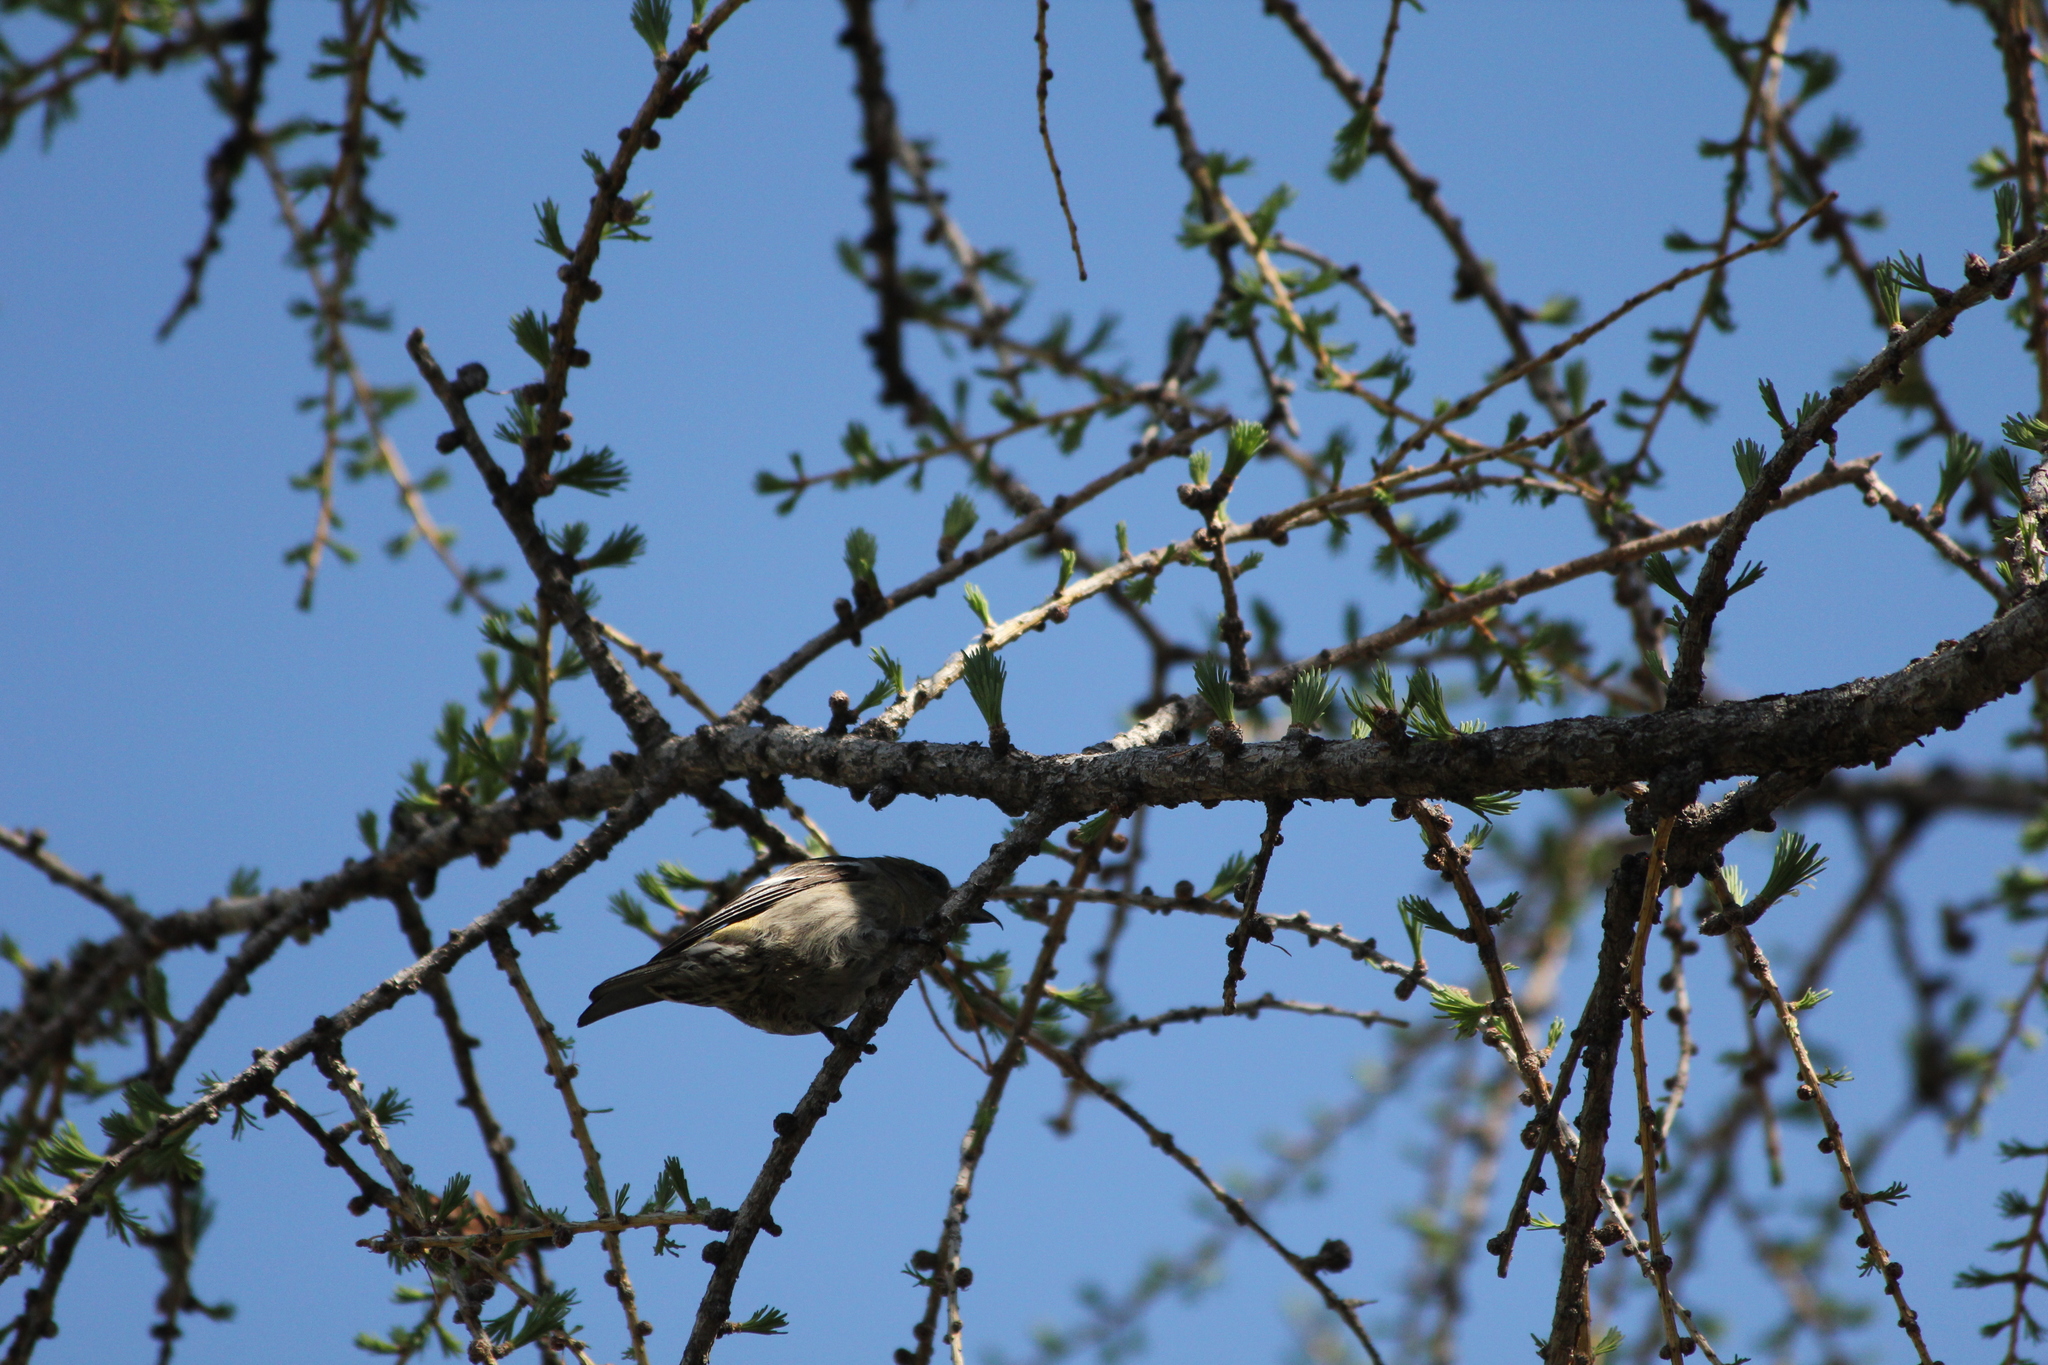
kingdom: Animalia
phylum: Chordata
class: Aves
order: Passeriformes
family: Fringillidae
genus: Loxia
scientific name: Loxia leucoptera
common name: Two-barred crossbill
